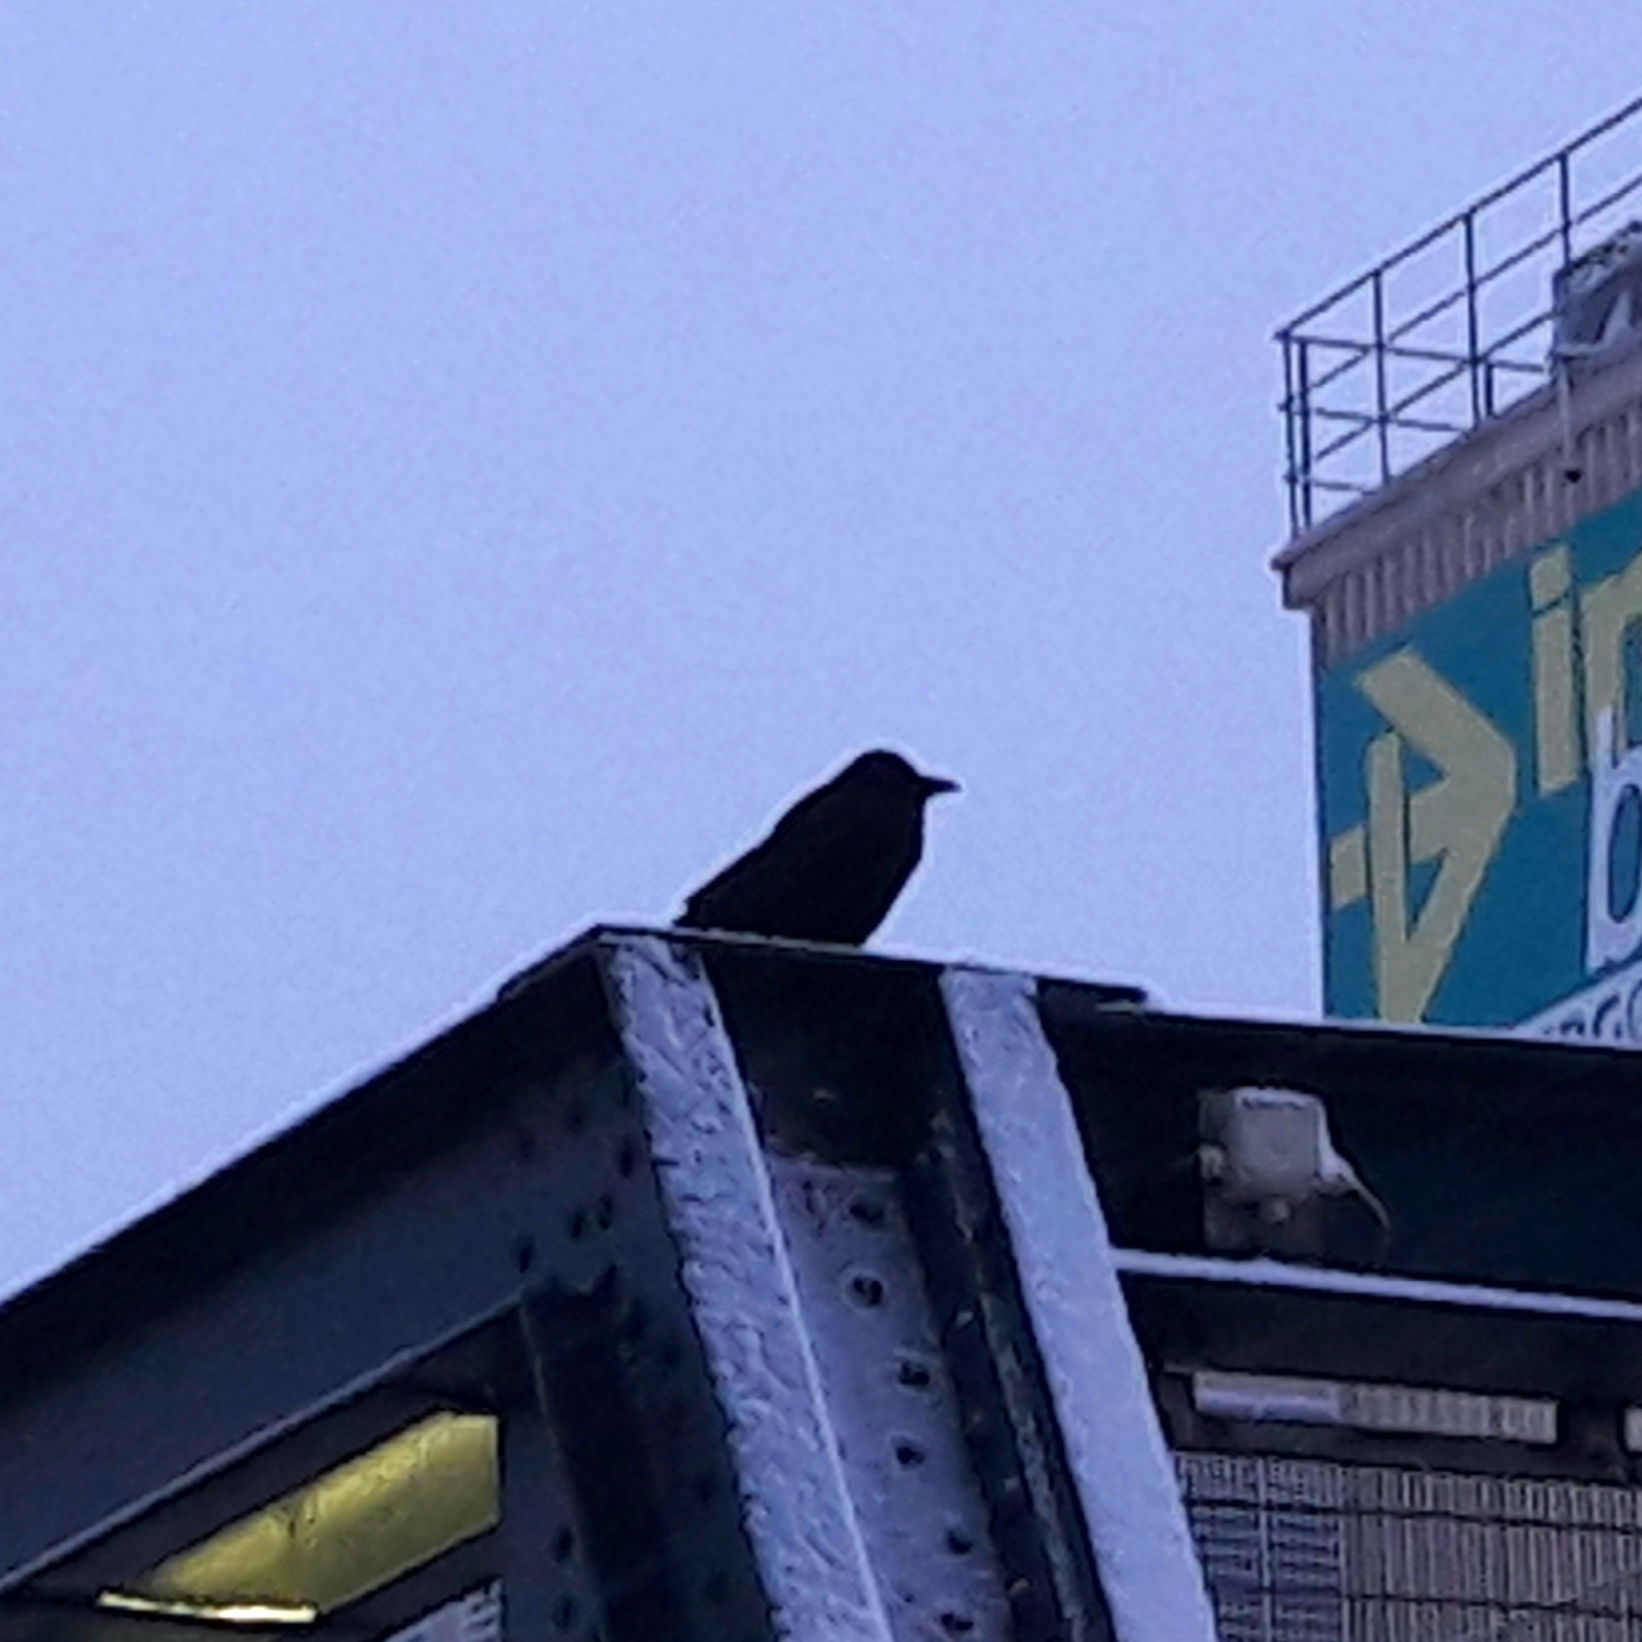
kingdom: Animalia
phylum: Chordata
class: Aves
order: Passeriformes
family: Corvidae
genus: Corvus
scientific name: Corvus corone
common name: Carrion crow
